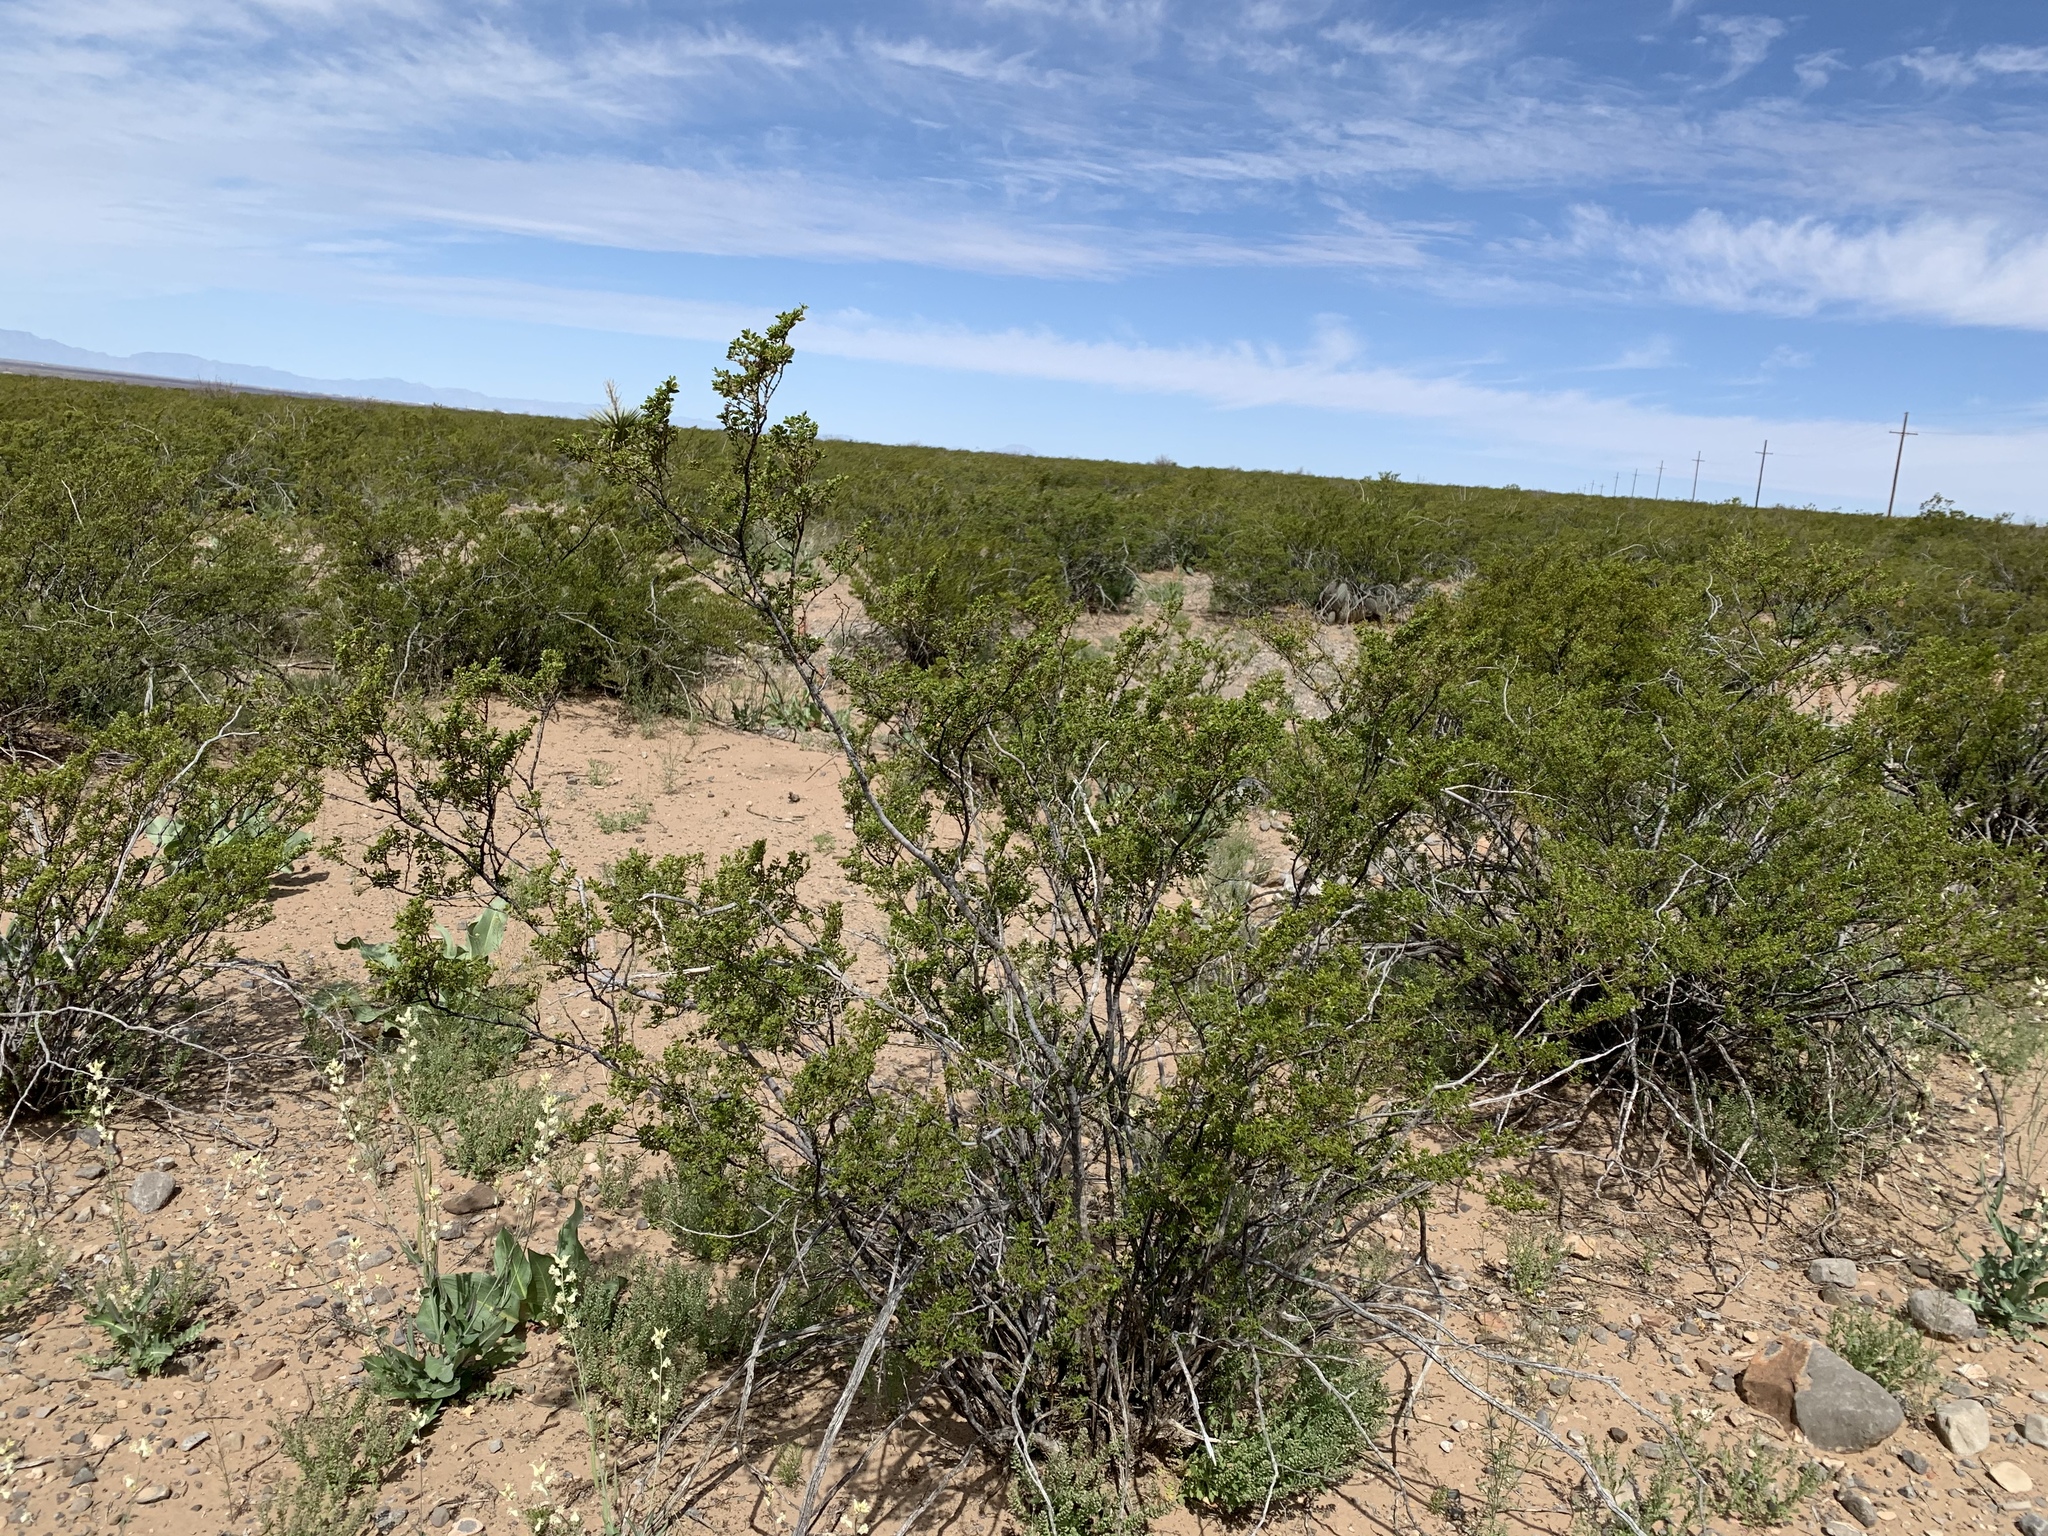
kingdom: Plantae
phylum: Tracheophyta
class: Magnoliopsida
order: Zygophyllales
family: Zygophyllaceae
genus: Larrea
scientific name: Larrea tridentata
